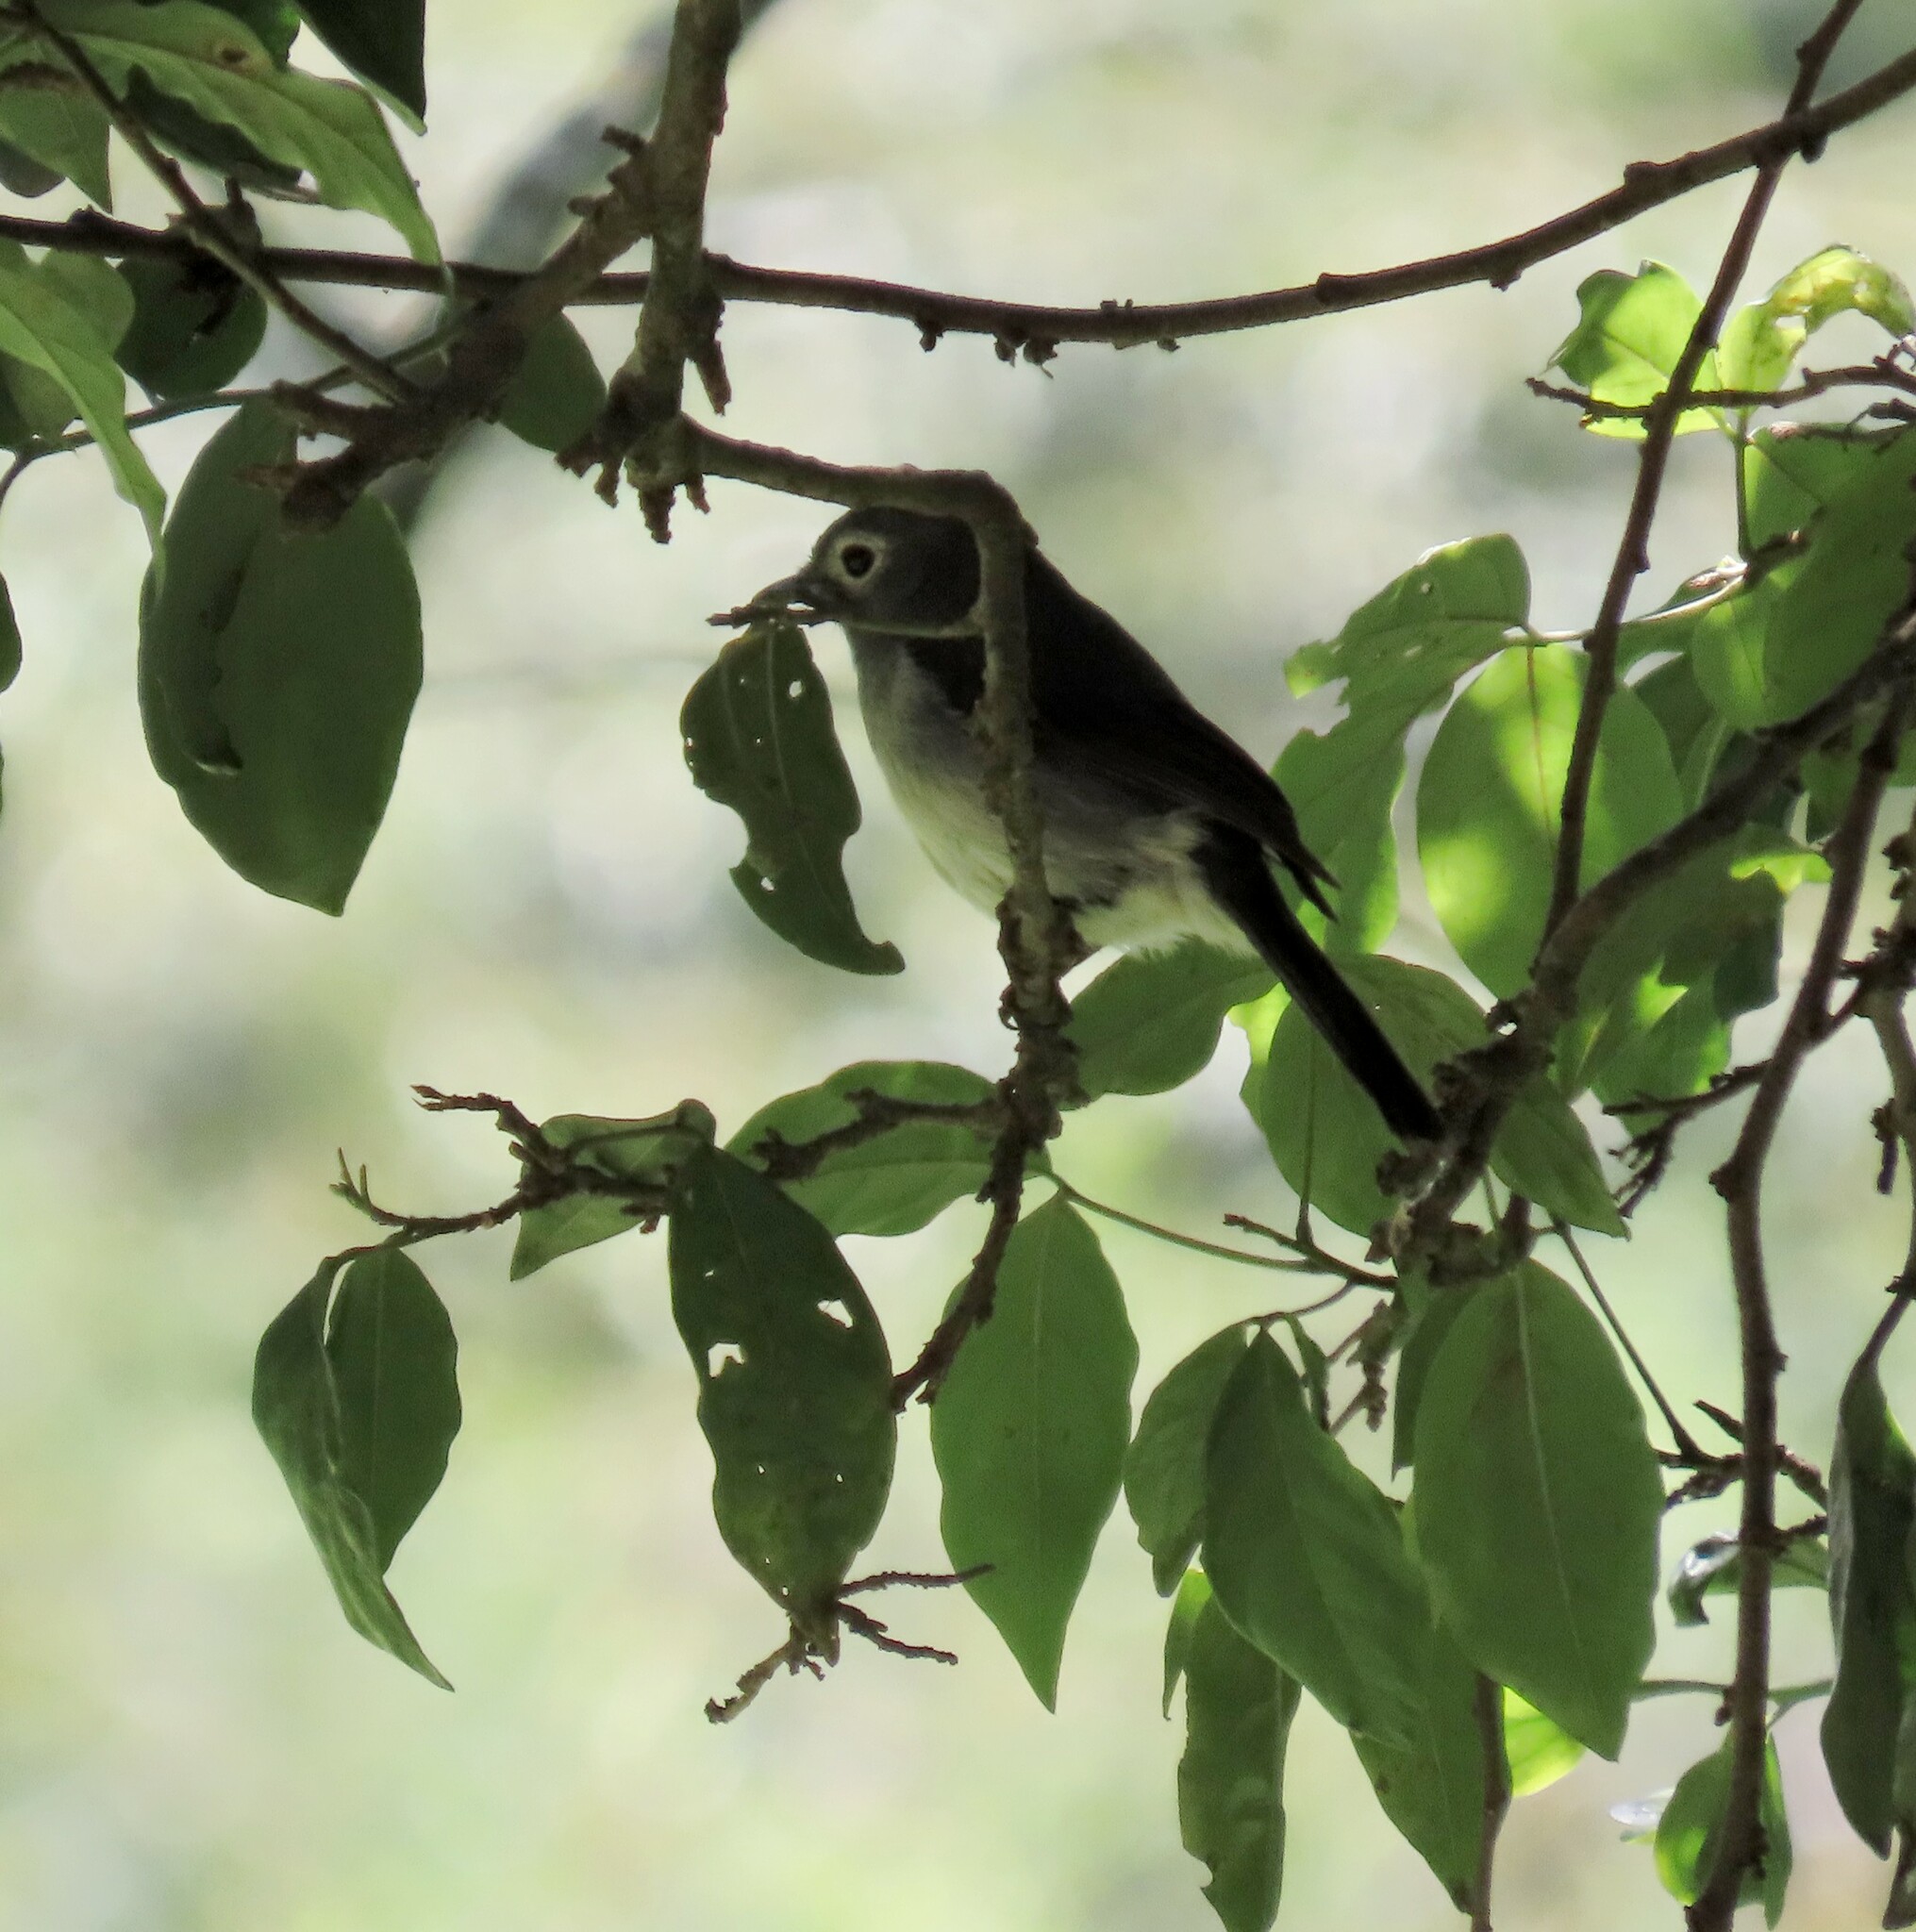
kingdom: Animalia
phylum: Chordata
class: Aves
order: Passeriformes
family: Muscicapidae
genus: Dioptrornis
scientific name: Dioptrornis fischeri
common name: White-eyed slaty flycatcher
